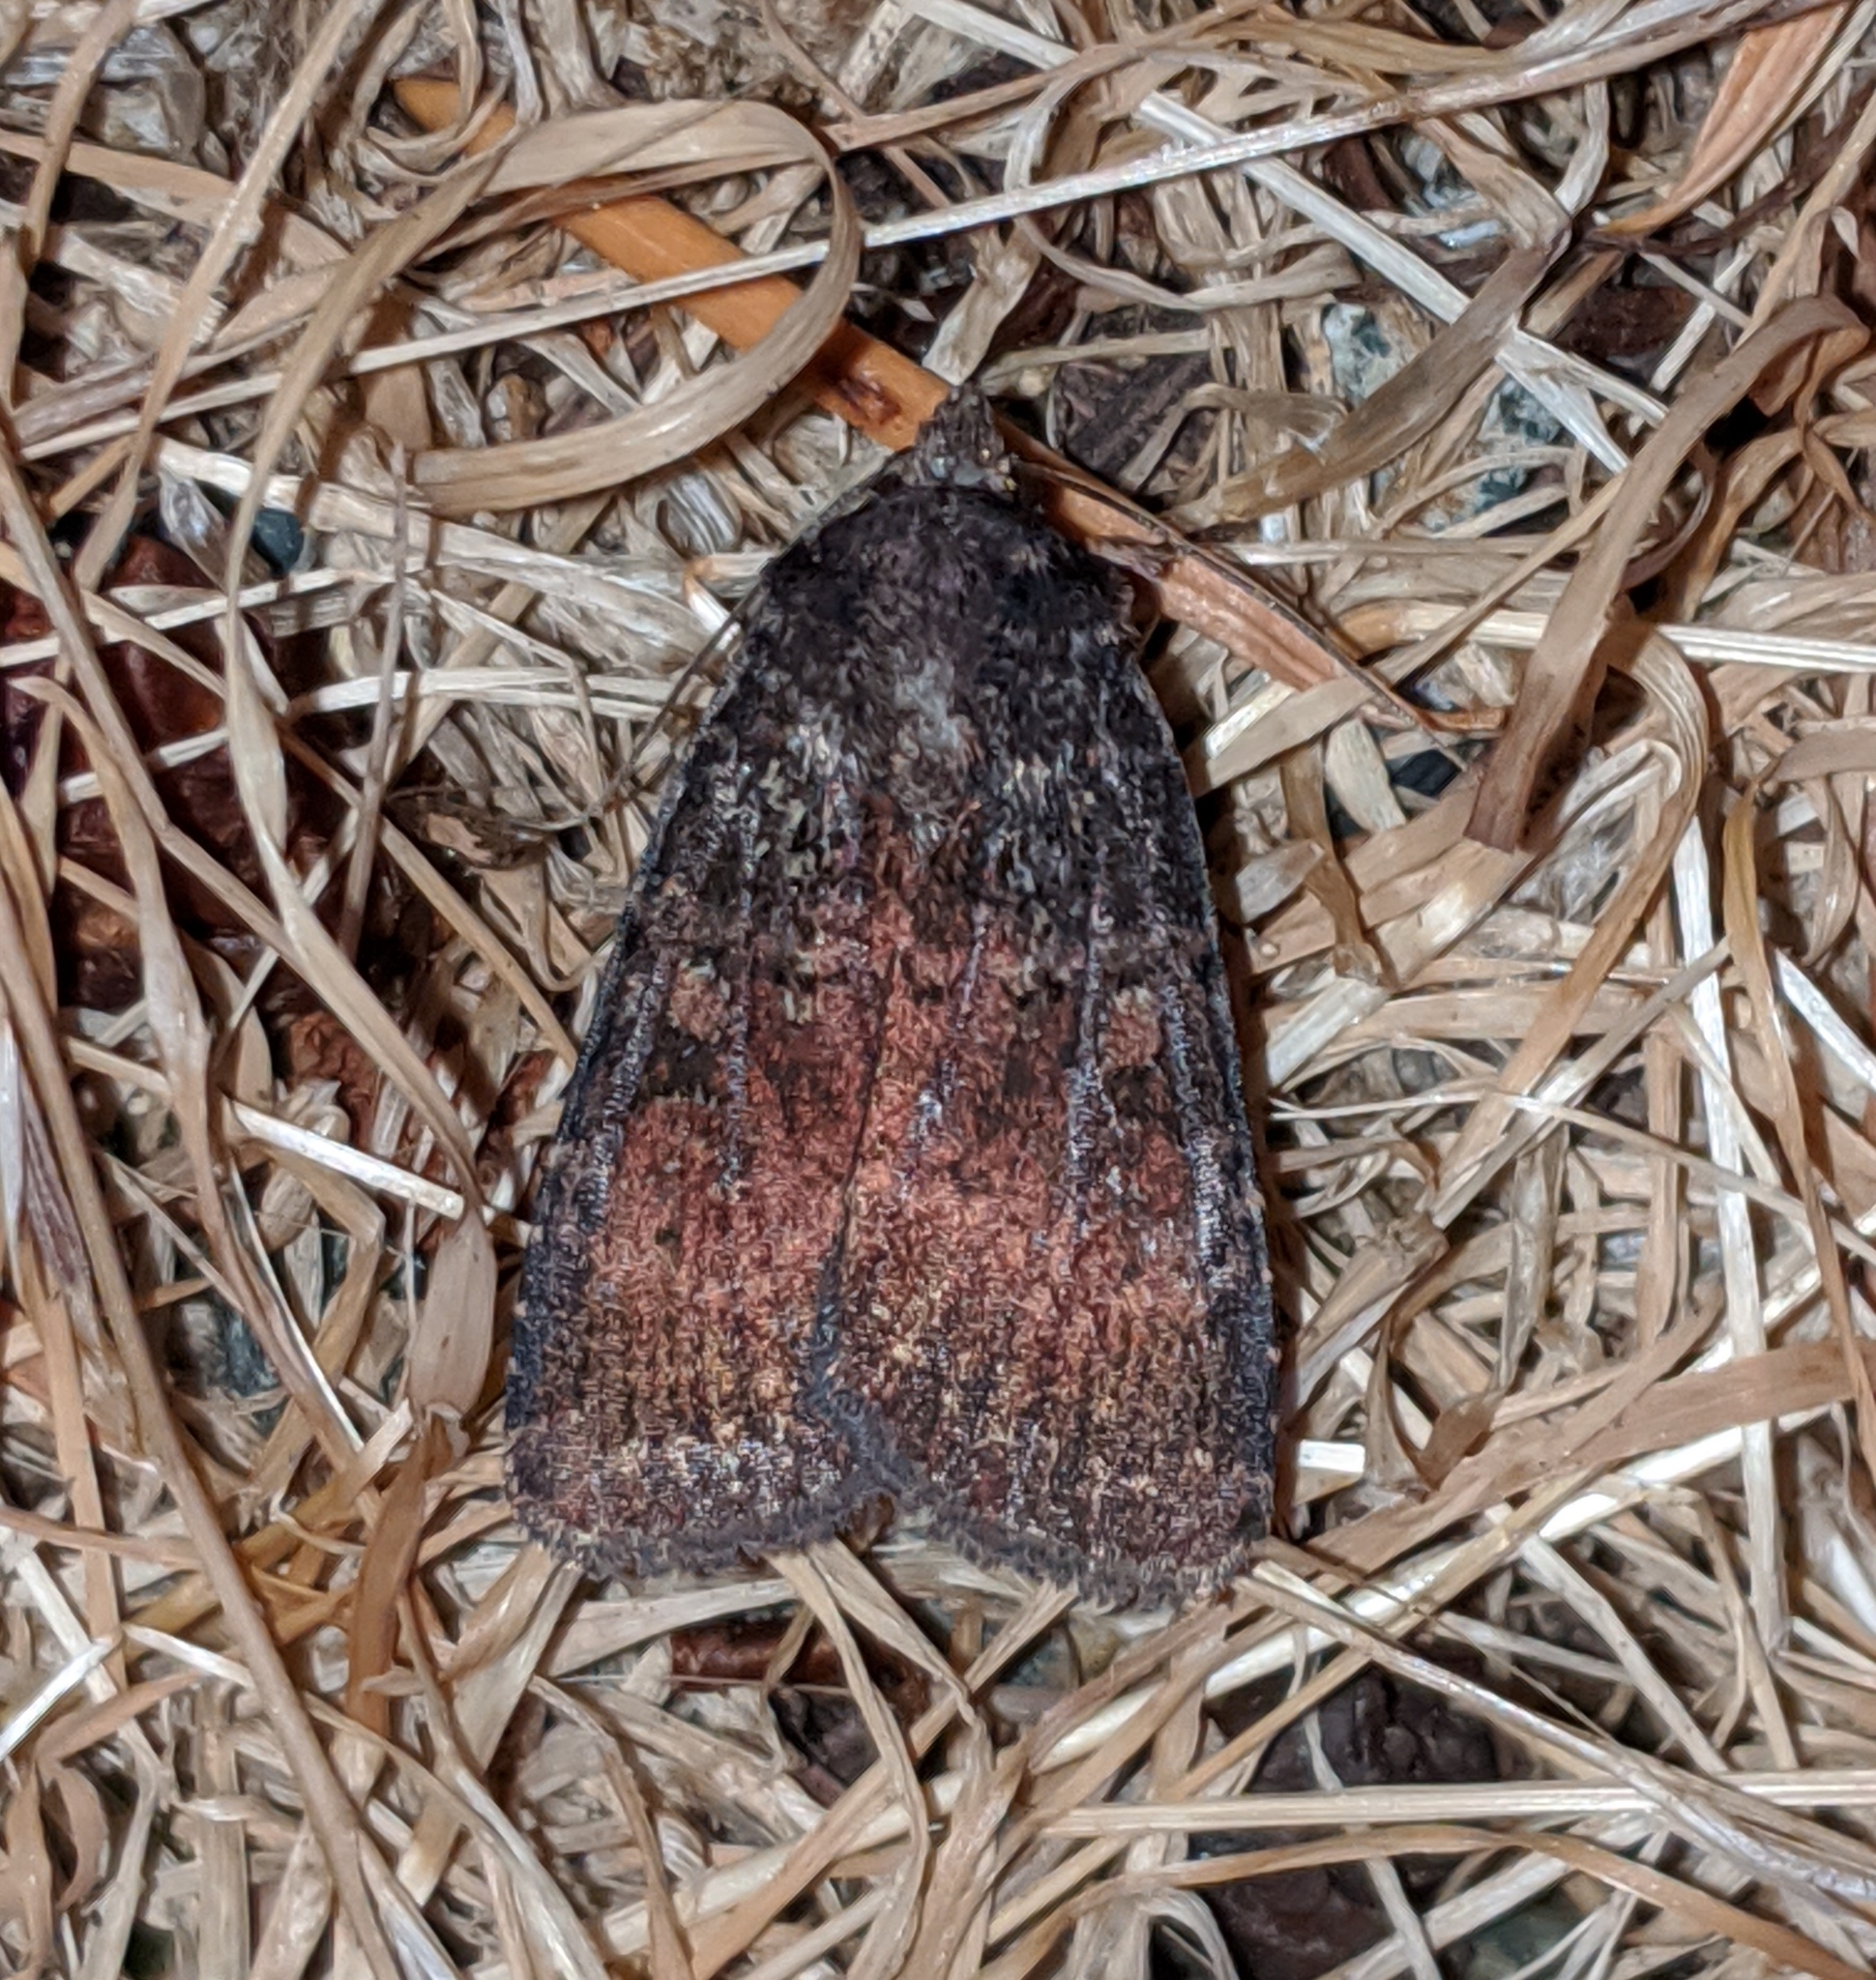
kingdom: Animalia
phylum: Arthropoda
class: Insecta
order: Lepidoptera
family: Noctuidae
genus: Abagrotis
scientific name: Abagrotis apposita
